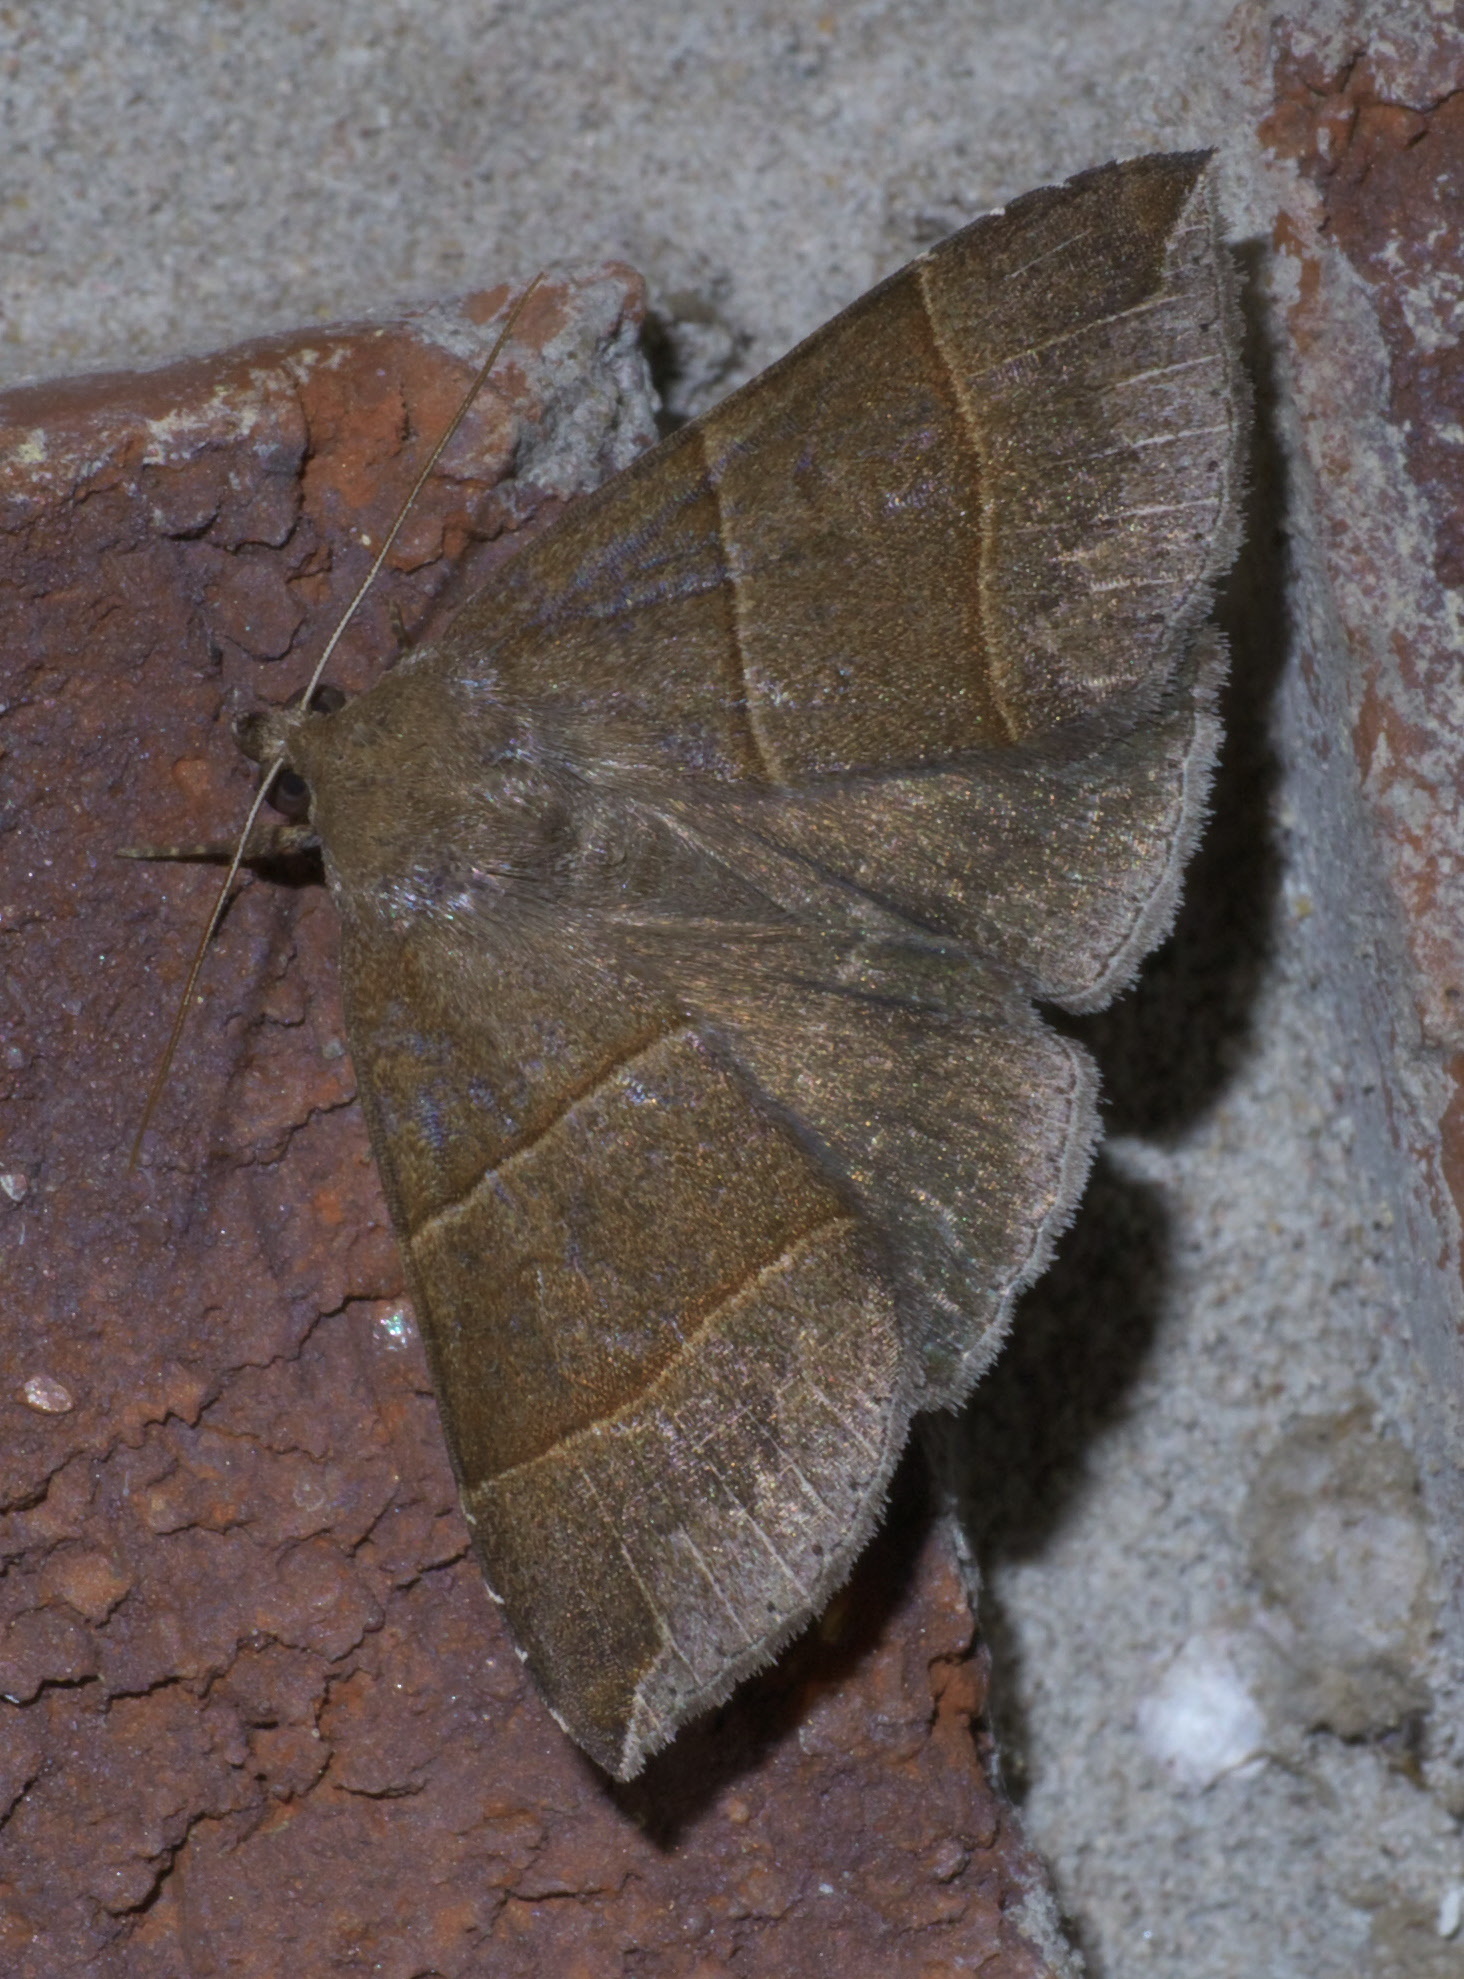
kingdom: Animalia
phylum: Arthropoda
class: Insecta
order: Lepidoptera
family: Erebidae
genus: Parallelia
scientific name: Parallelia bistriaris
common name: Maple looper moth
